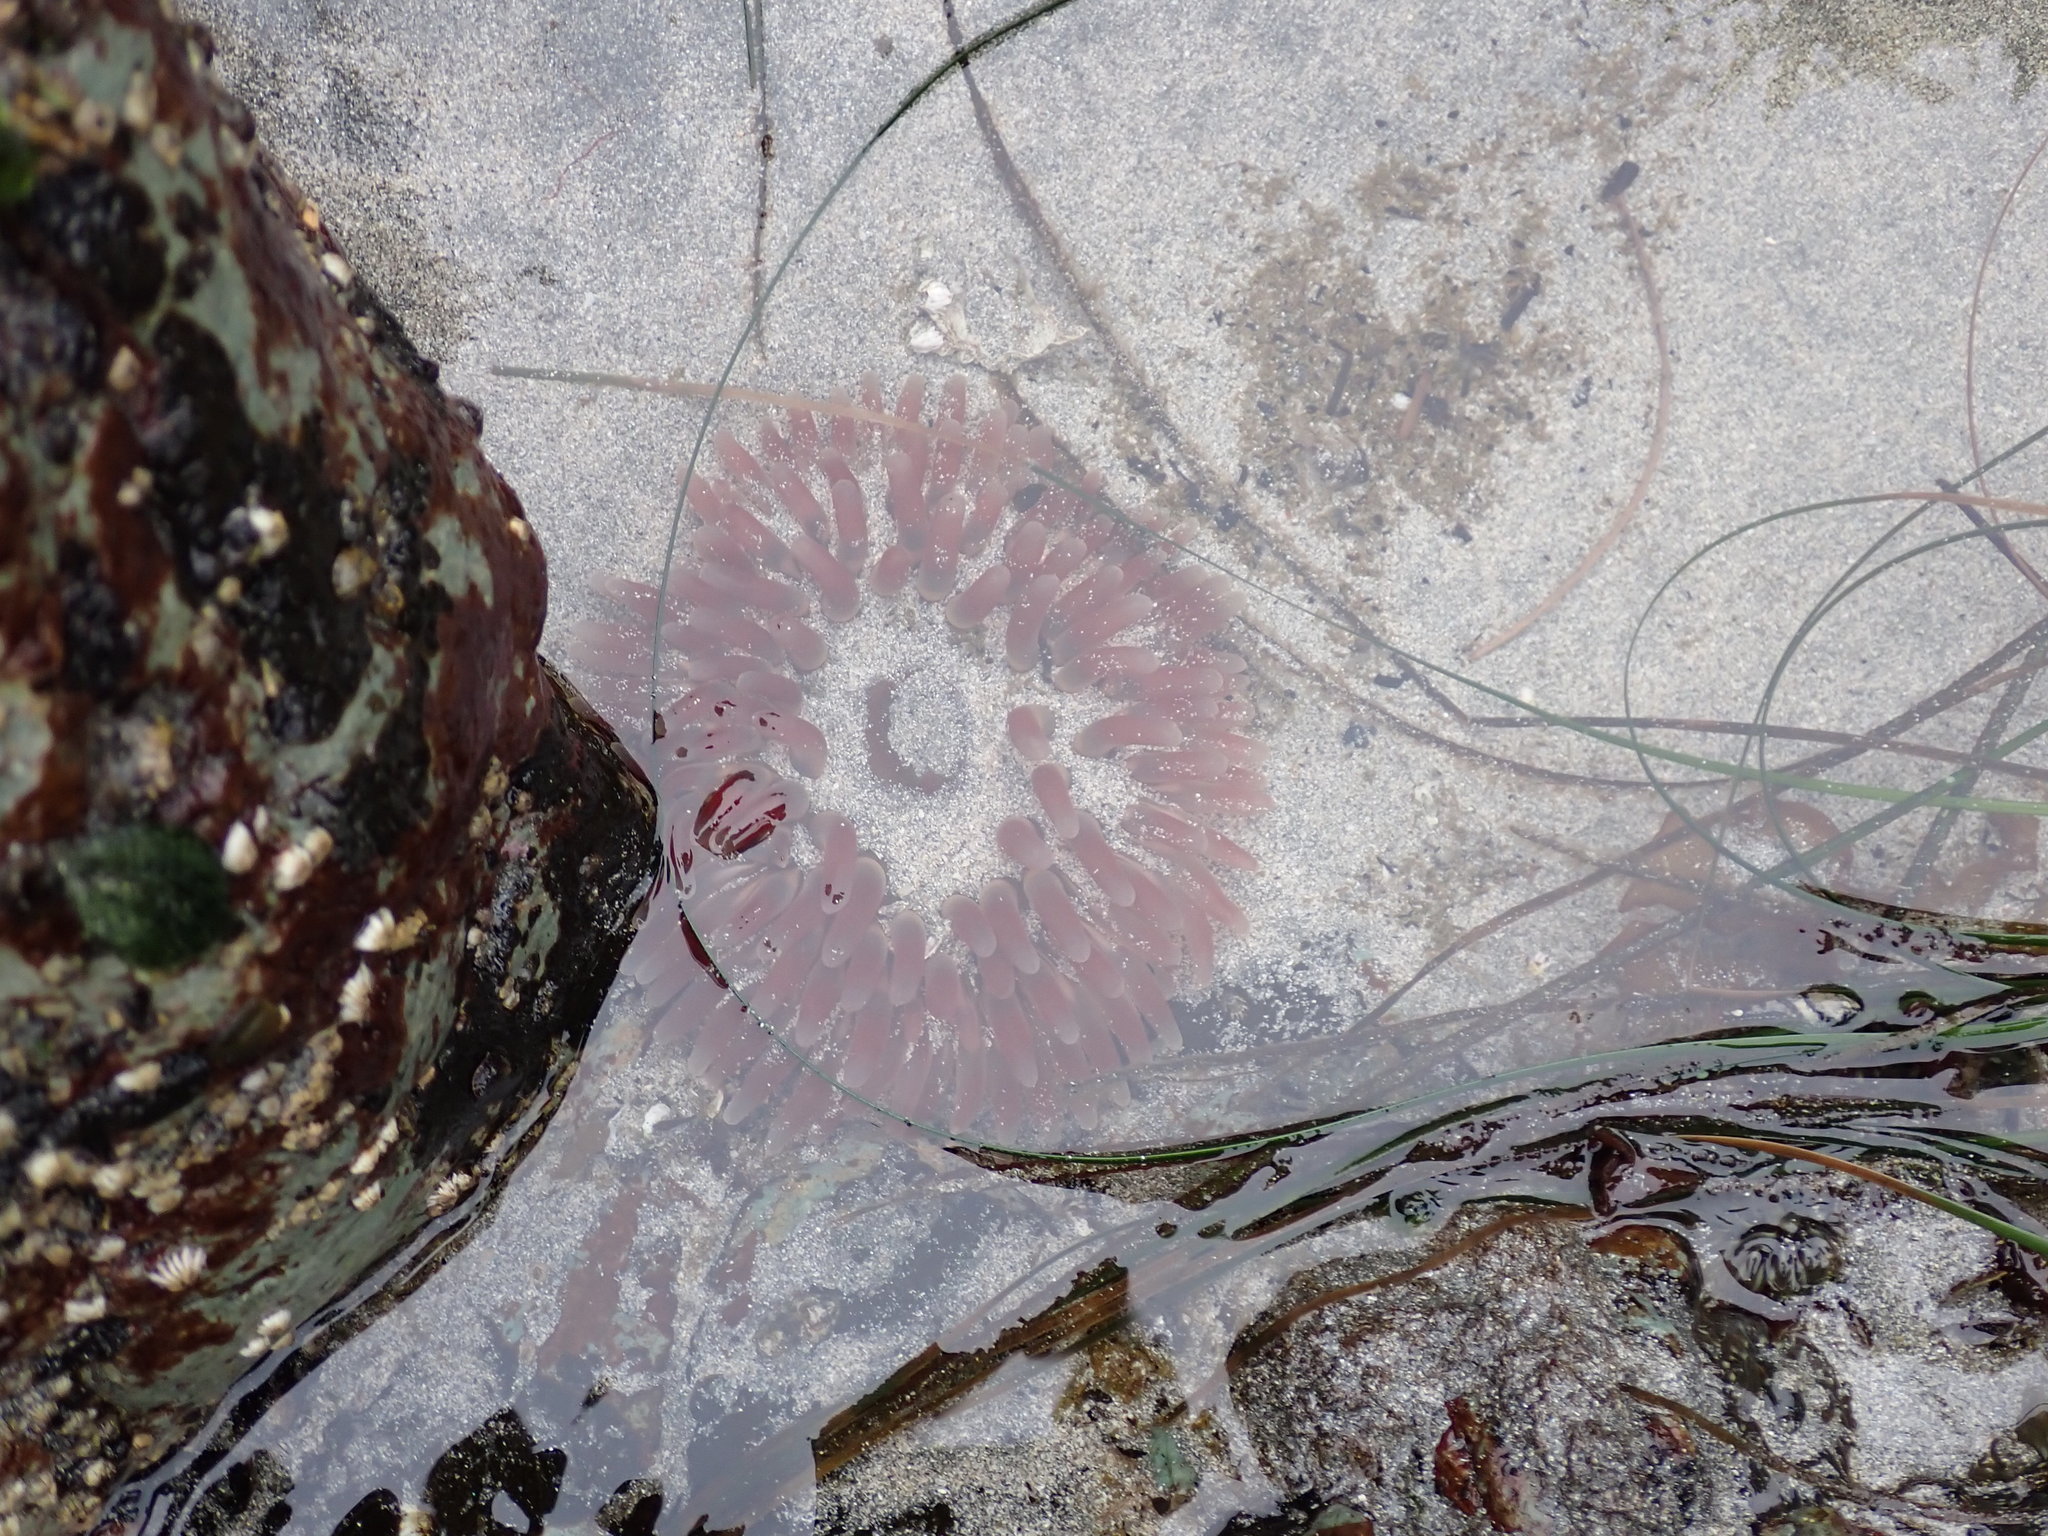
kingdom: Animalia
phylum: Cnidaria
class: Anthozoa
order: Actiniaria
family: Actiniidae
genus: Urticina
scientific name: Urticina clandestina
